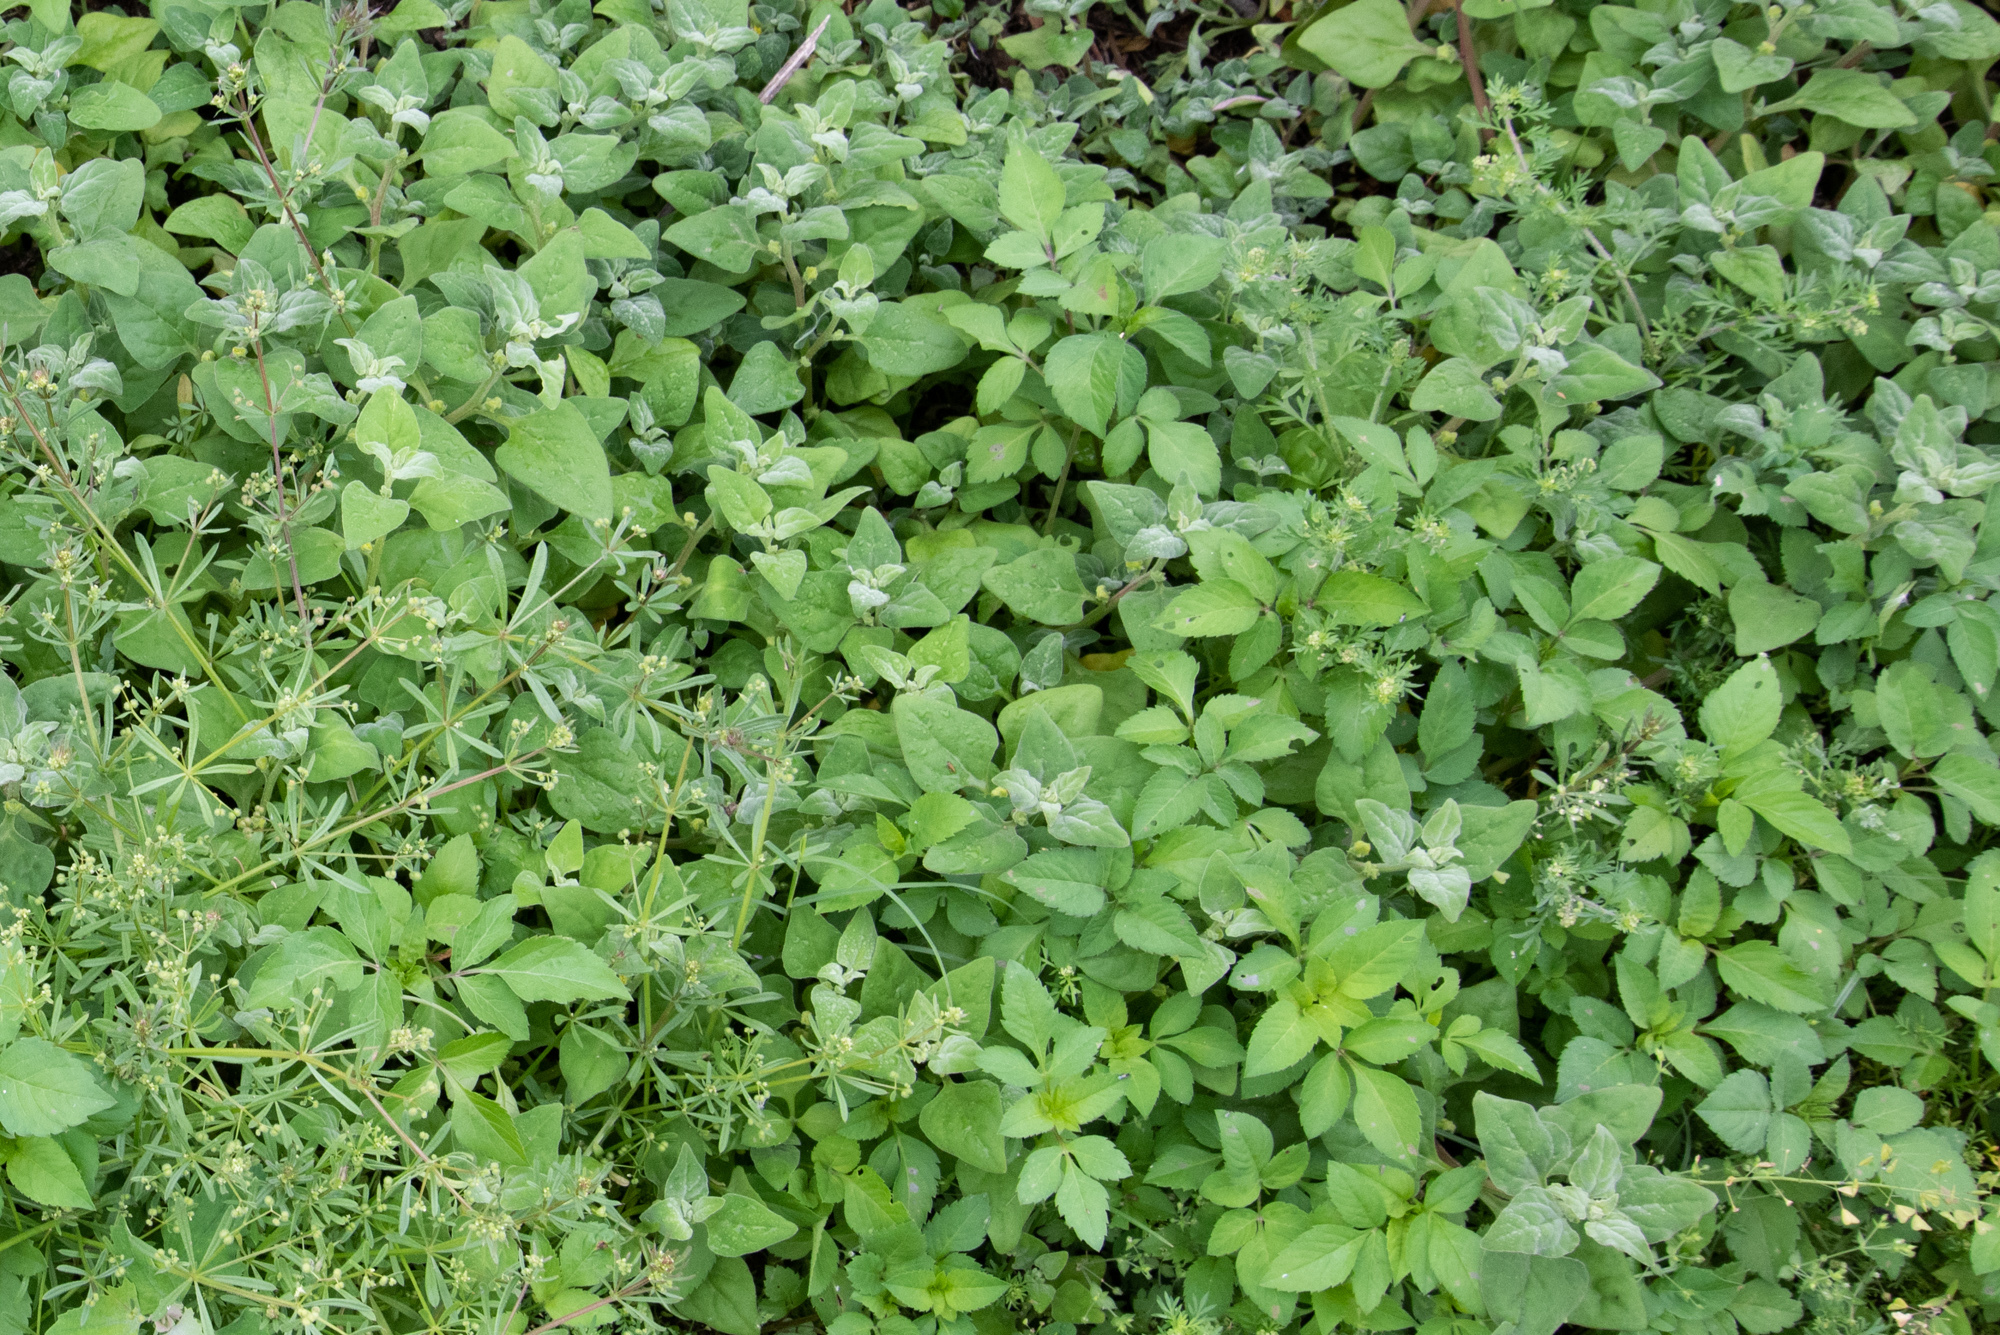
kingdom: Plantae
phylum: Tracheophyta
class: Magnoliopsida
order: Caryophyllales
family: Aizoaceae
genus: Tetragonia
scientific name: Tetragonia tetragonoides
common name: New zealand-spinach
